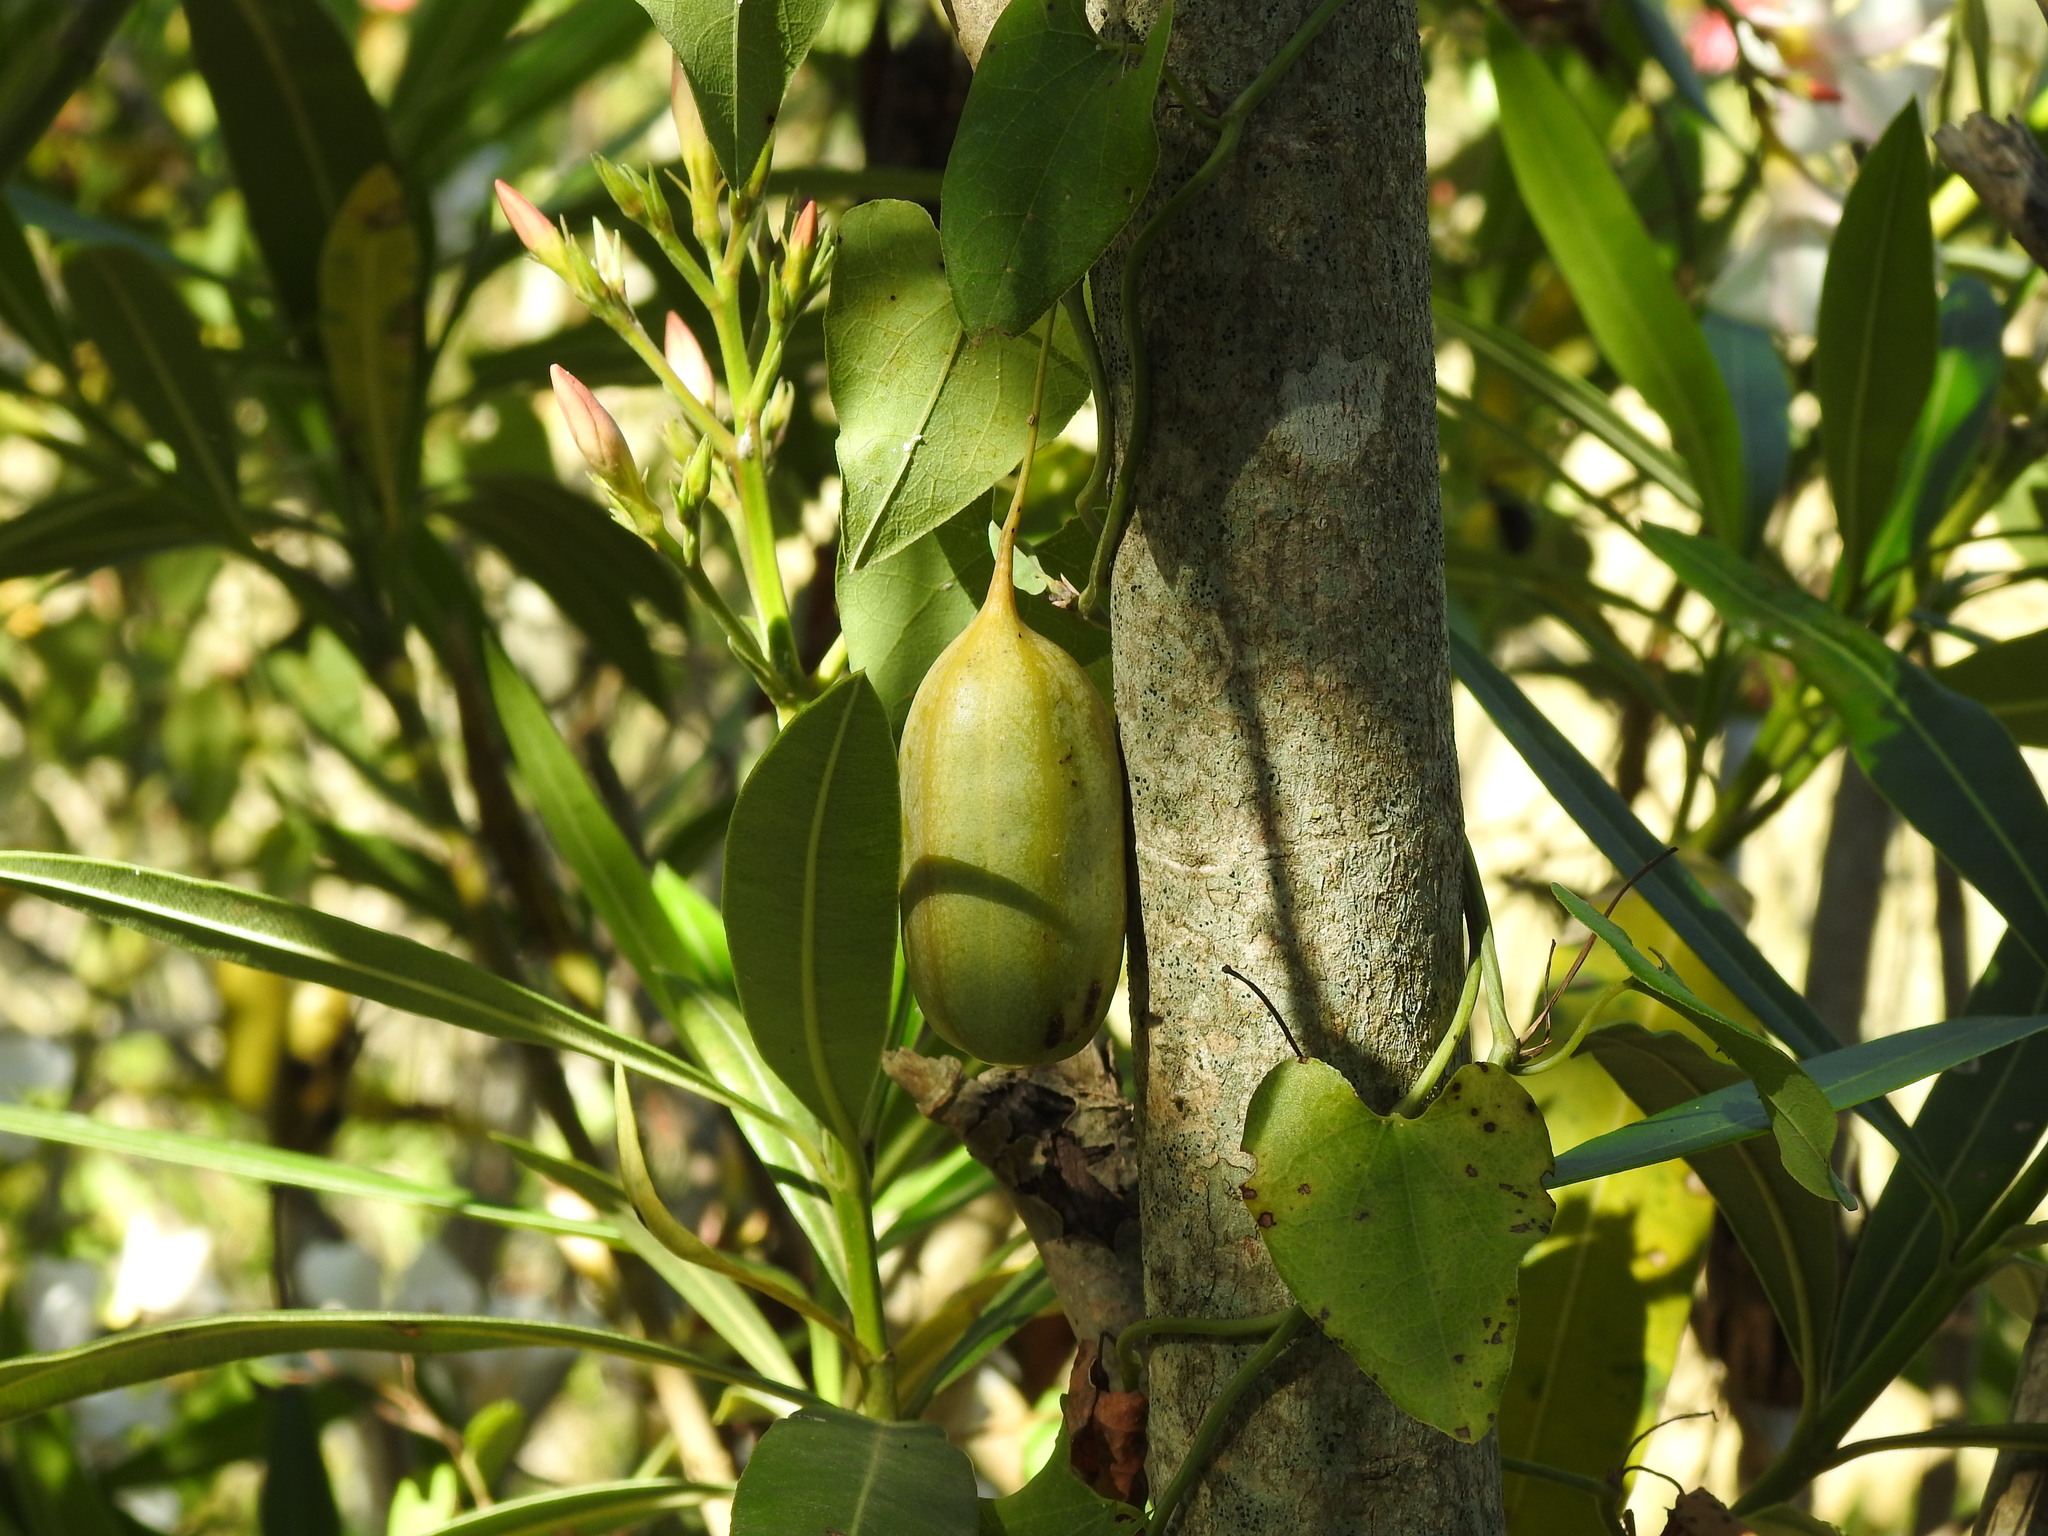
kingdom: Plantae
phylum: Tracheophyta
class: Magnoliopsida
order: Piperales
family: Aristolochiaceae
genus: Aristolochia
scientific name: Aristolochia baetica
